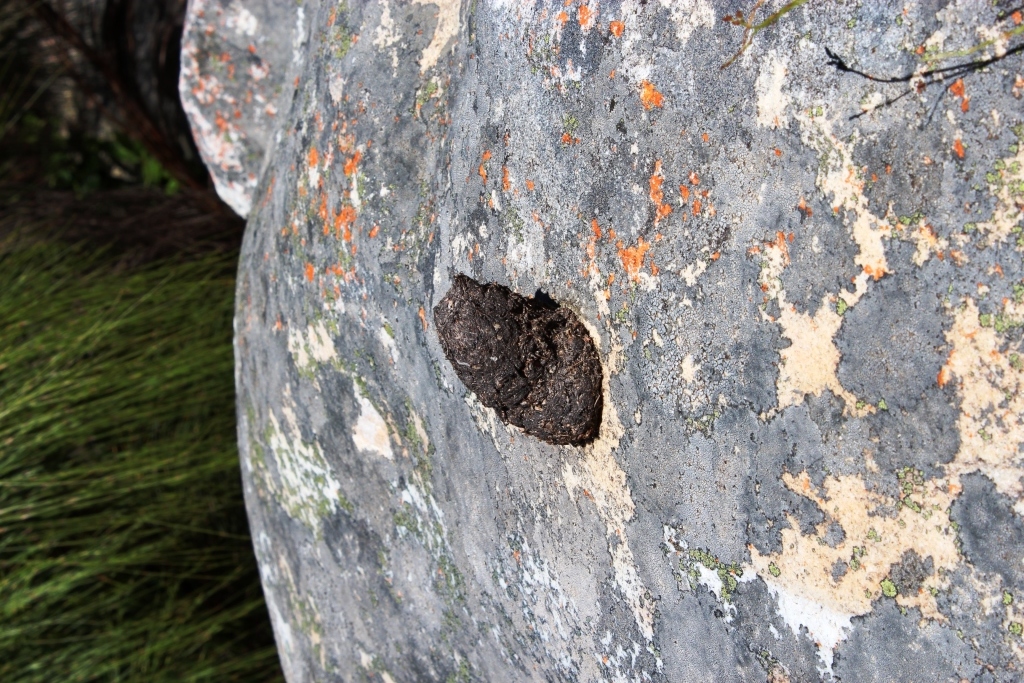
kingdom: Animalia
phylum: Chordata
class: Mammalia
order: Primates
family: Cercopithecidae
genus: Papio
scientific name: Papio ursinus
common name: Chacma baboon
